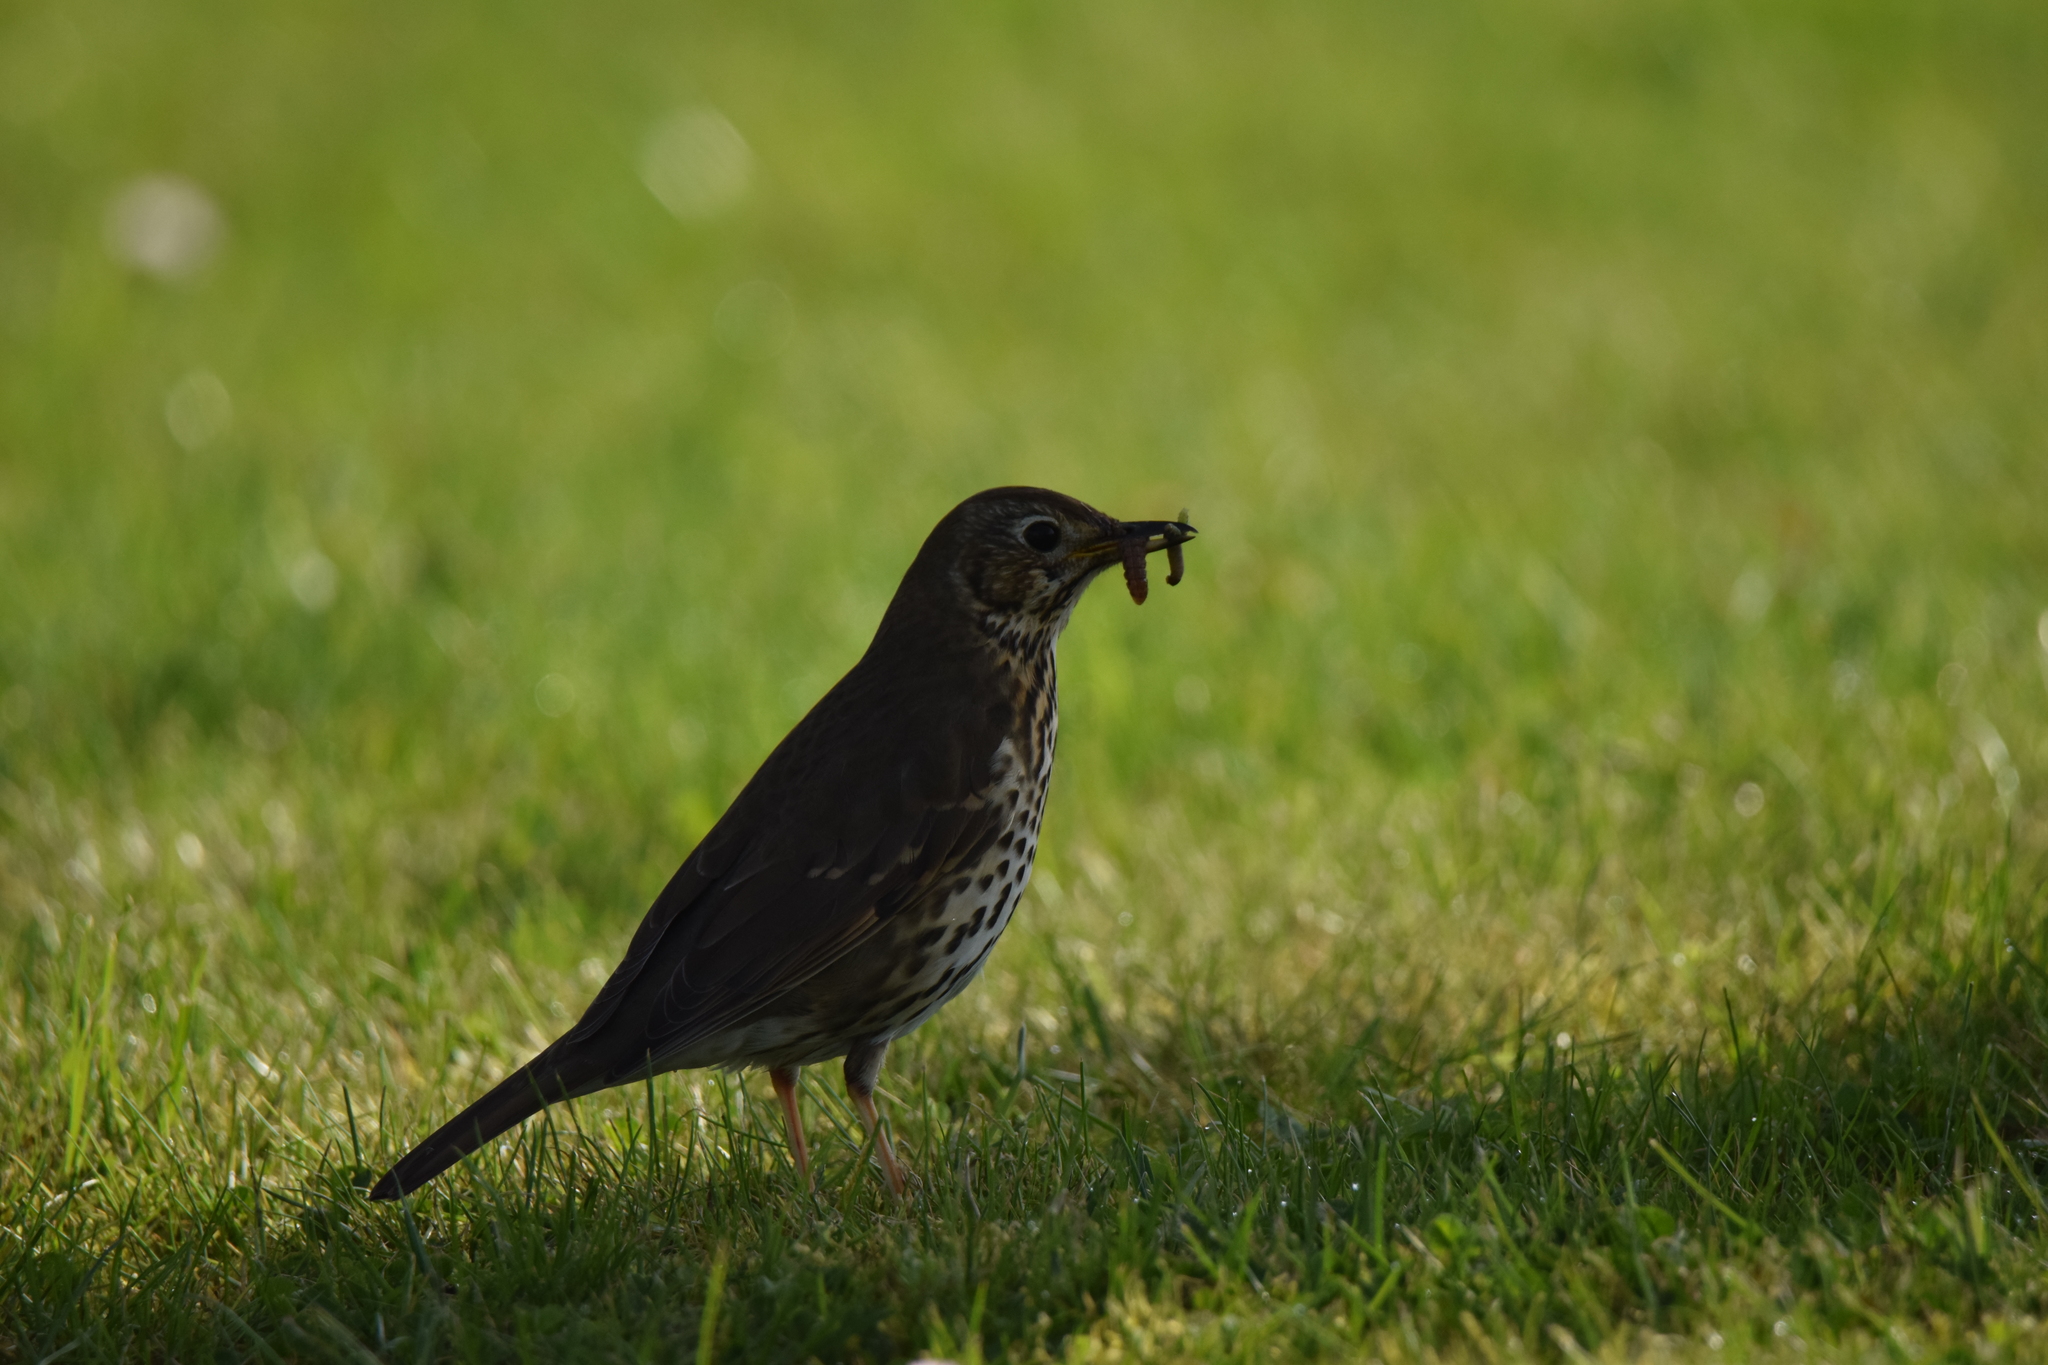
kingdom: Animalia
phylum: Chordata
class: Aves
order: Passeriformes
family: Turdidae
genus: Turdus
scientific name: Turdus philomelos
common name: Song thrush
